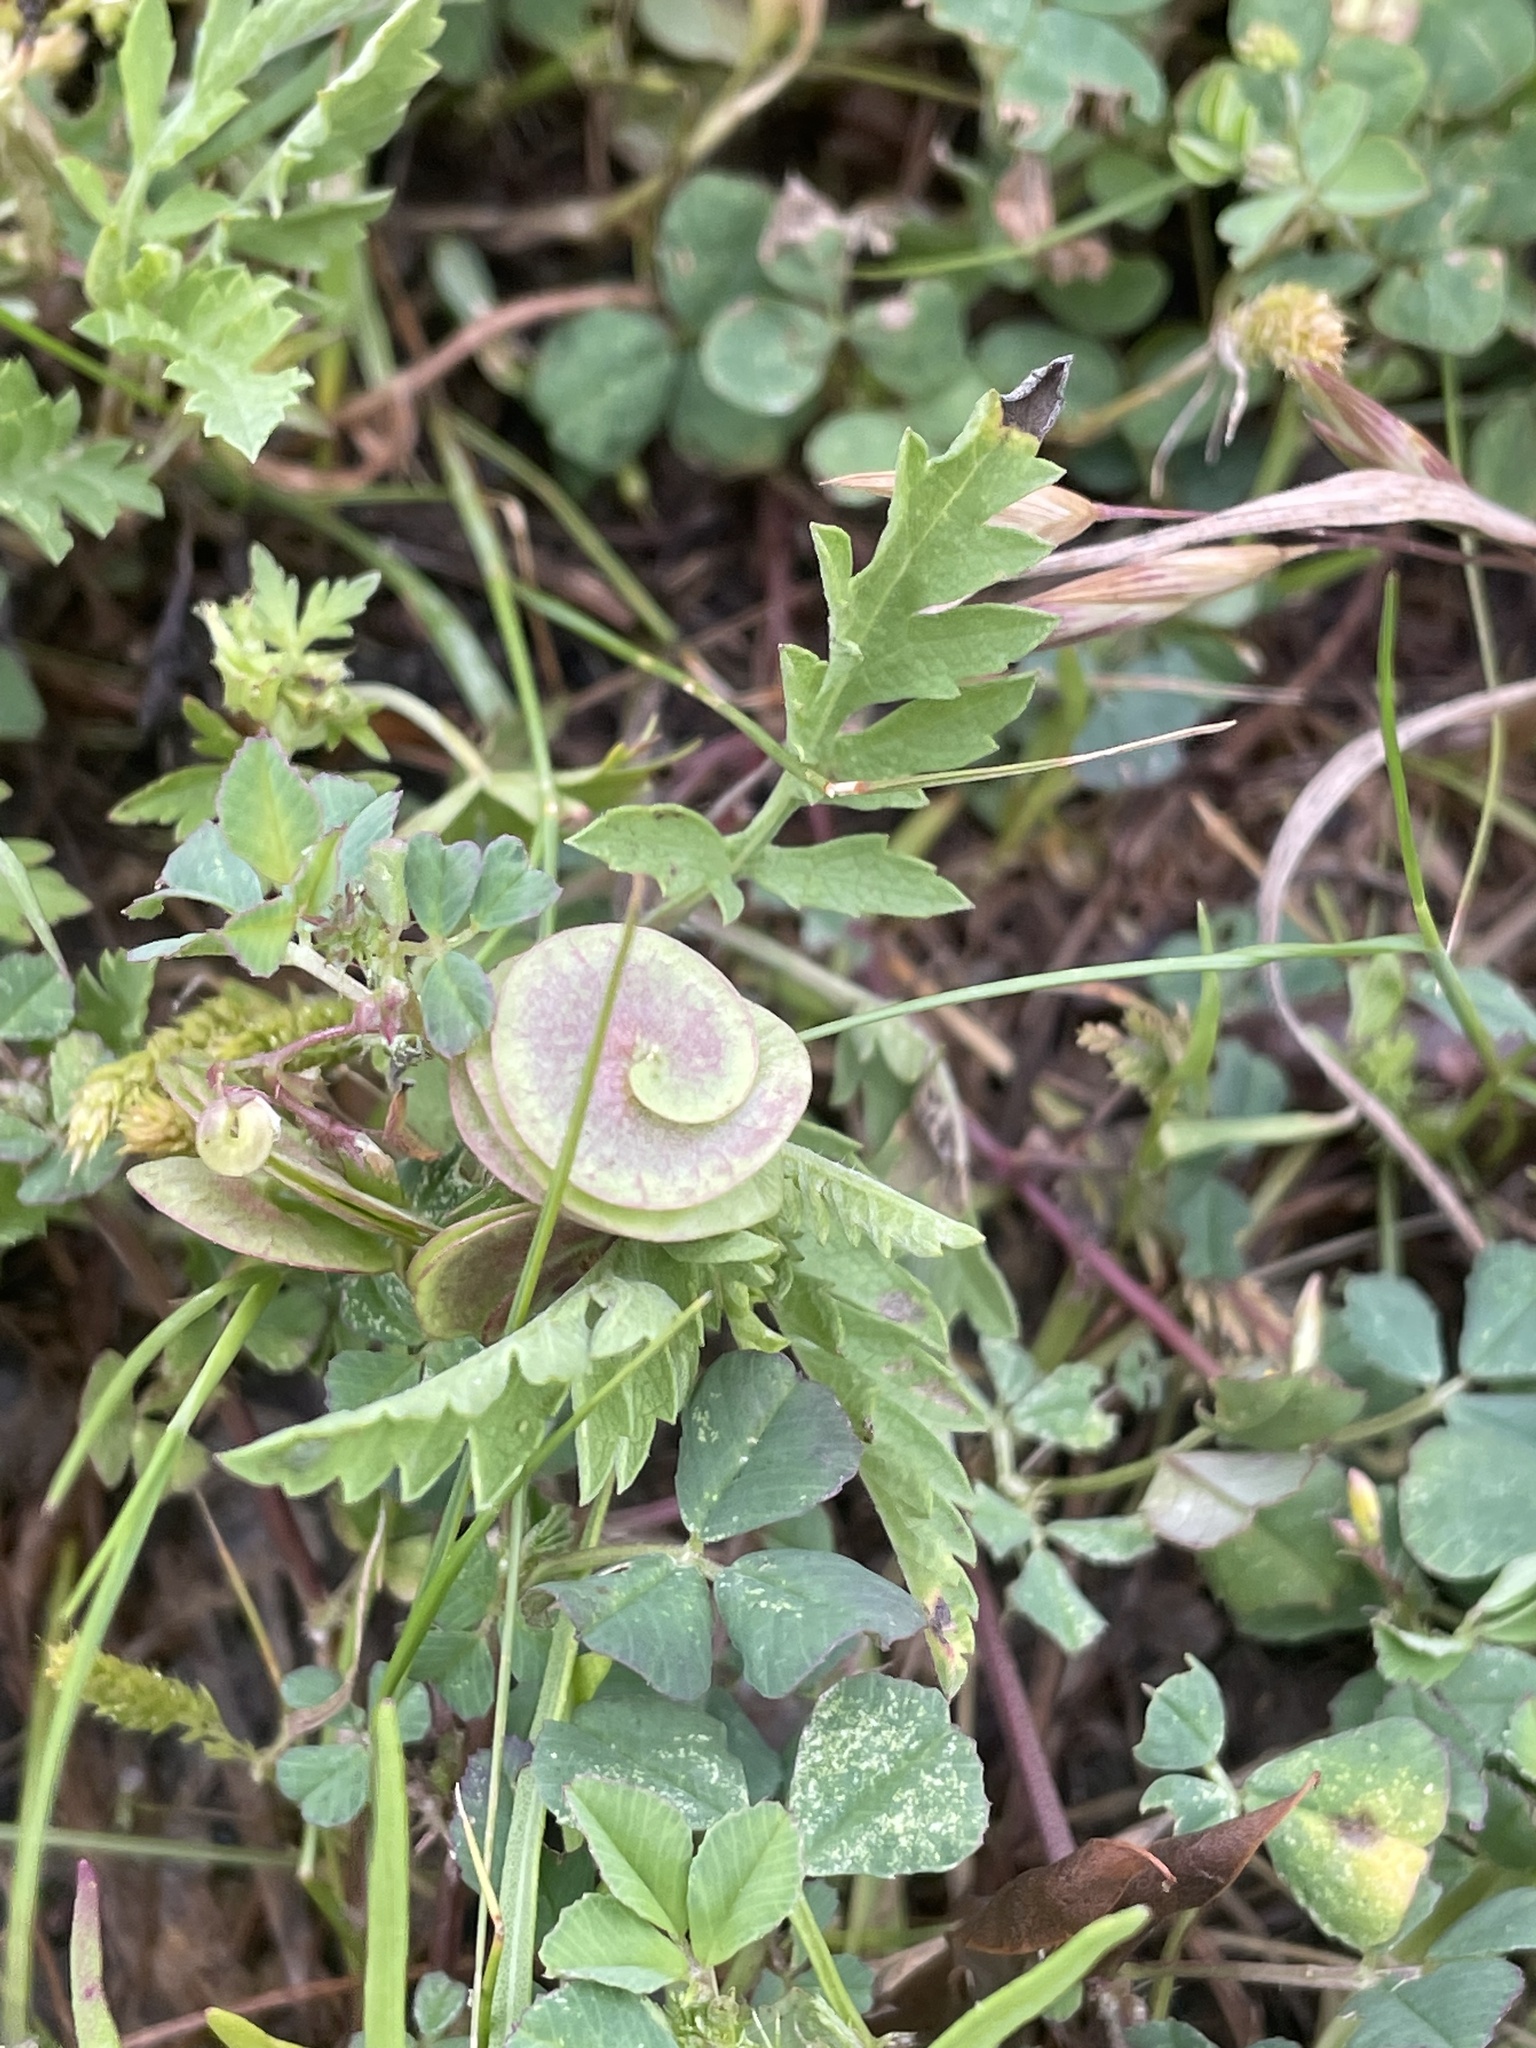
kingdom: Plantae
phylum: Tracheophyta
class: Magnoliopsida
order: Fabales
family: Fabaceae
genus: Medicago
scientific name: Medicago orbicularis
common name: Button medick
